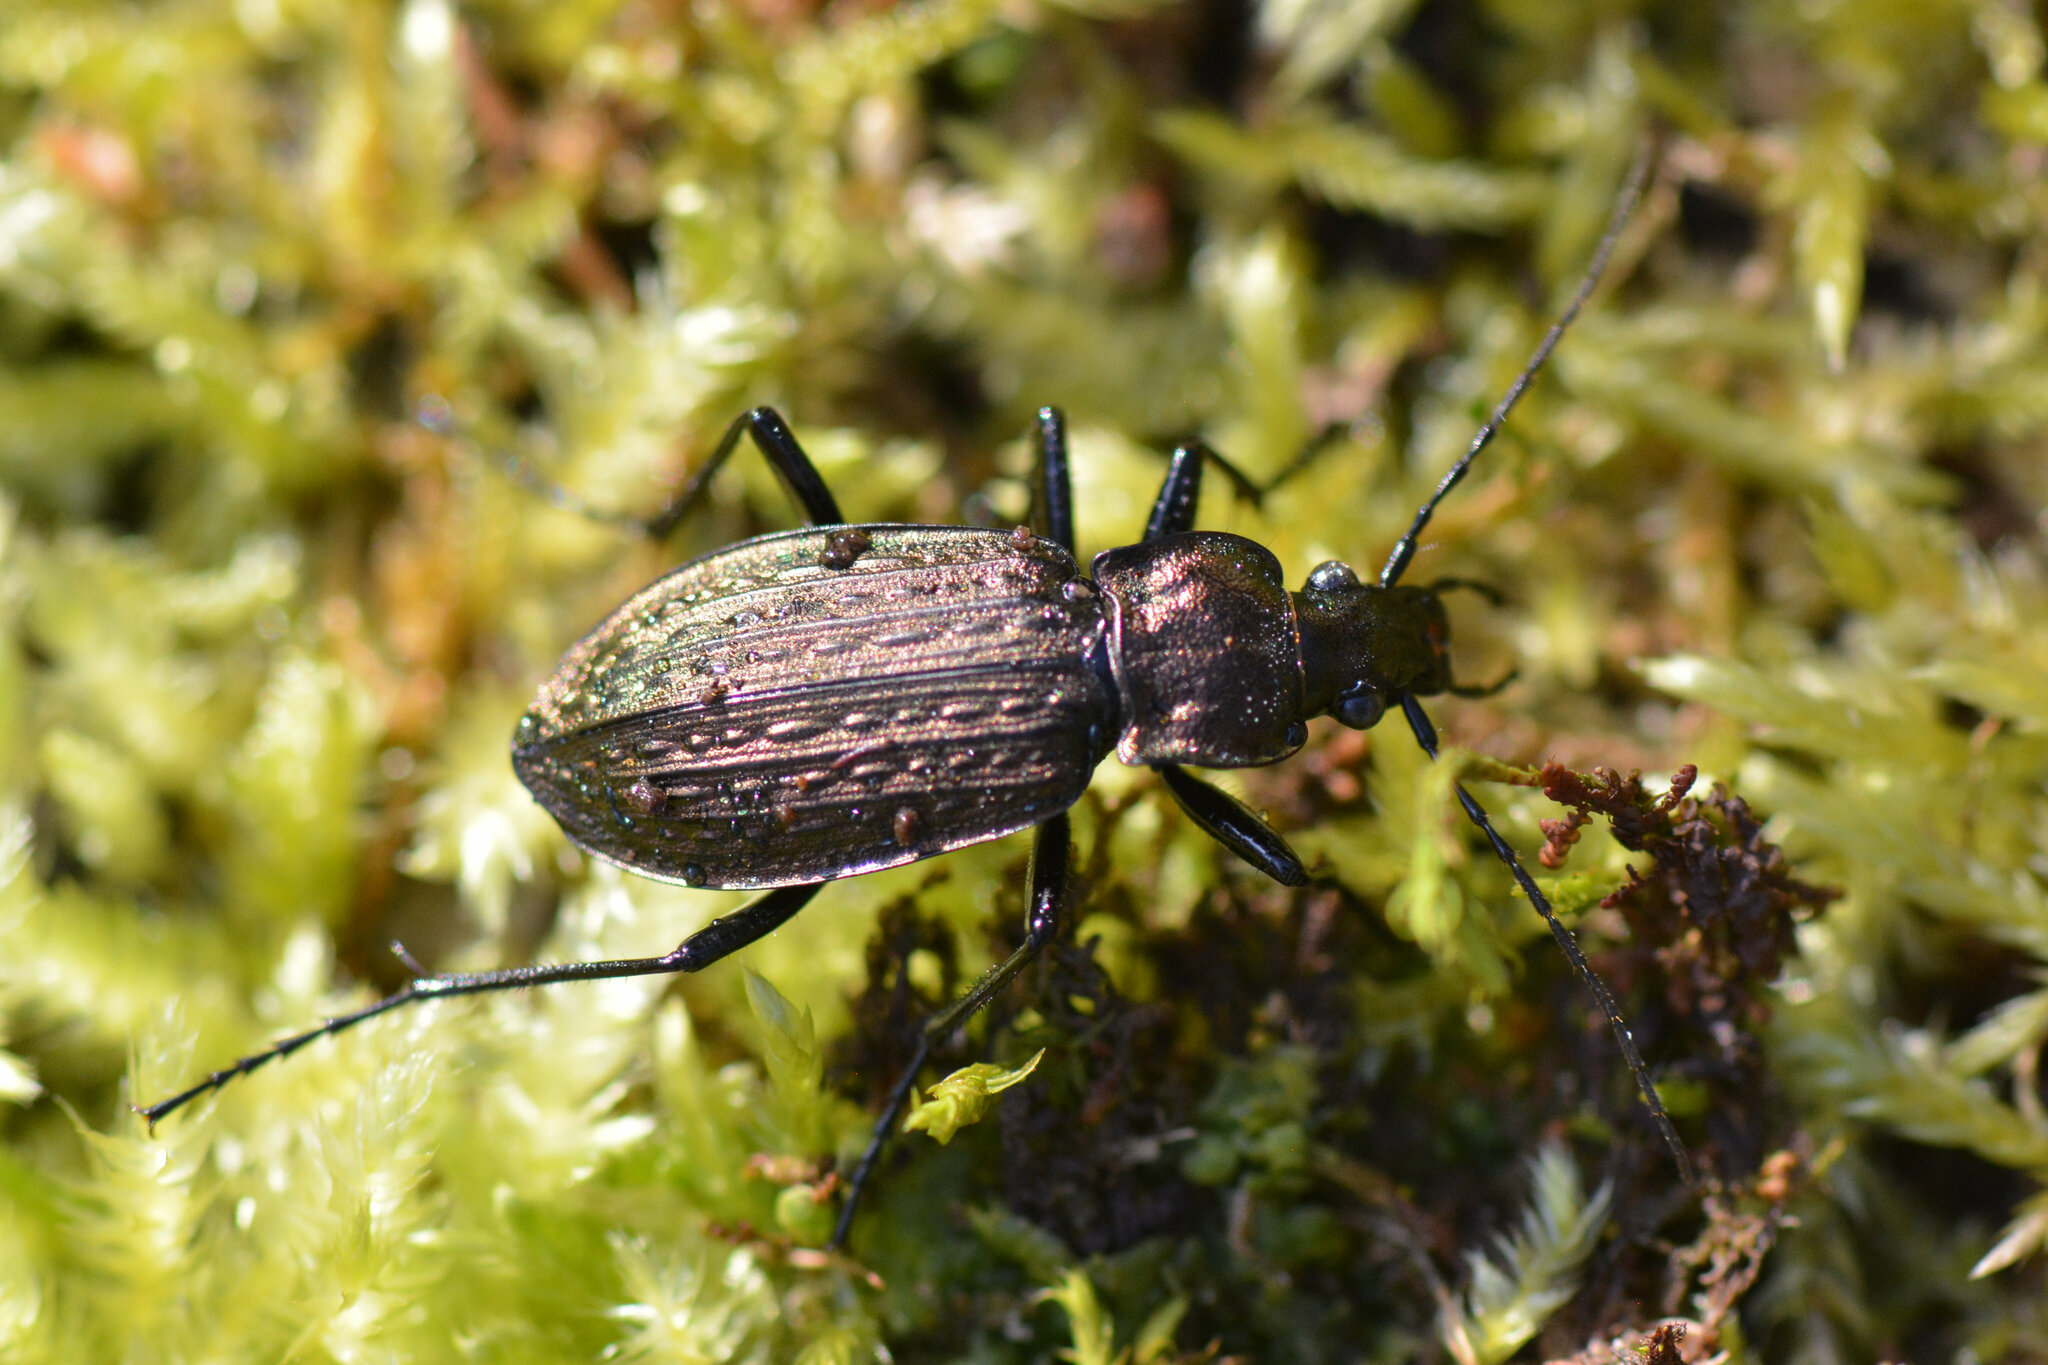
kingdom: Animalia
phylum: Arthropoda
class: Insecta
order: Coleoptera
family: Carabidae
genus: Carabus
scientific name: Carabus granulatus
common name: Granulate ground beetle
